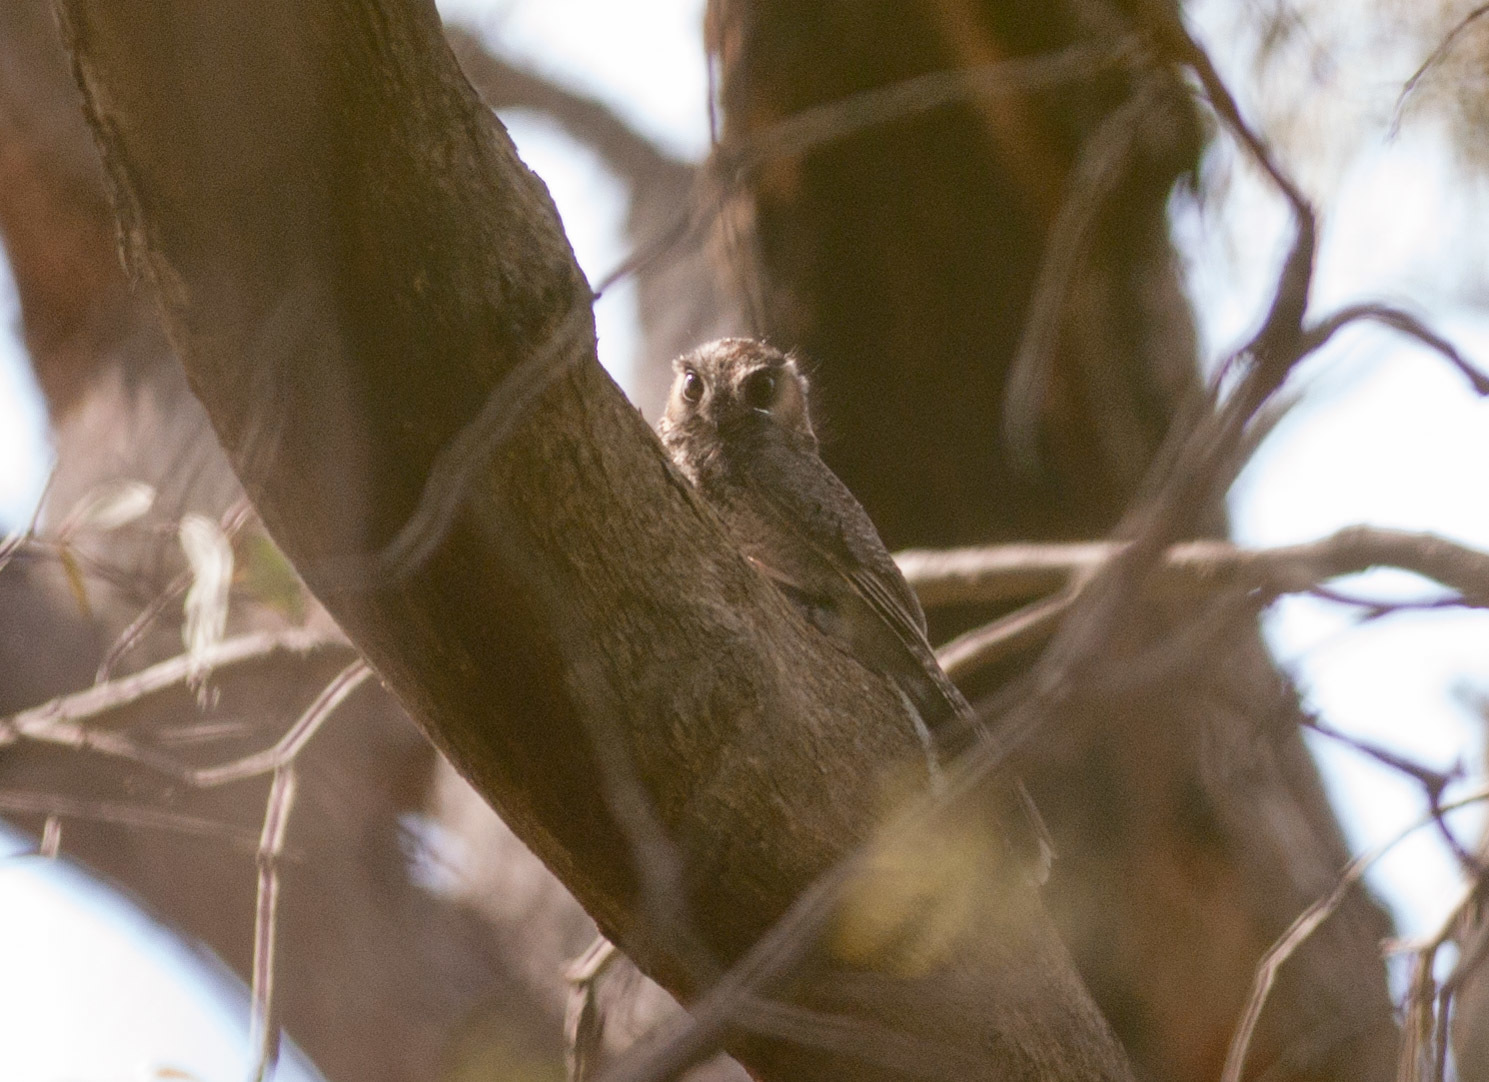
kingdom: Animalia
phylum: Chordata
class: Aves
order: Apodiformes
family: Aegothelidae
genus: Aegotheles
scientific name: Aegotheles cristatus
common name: Australian owlet-nightjar
